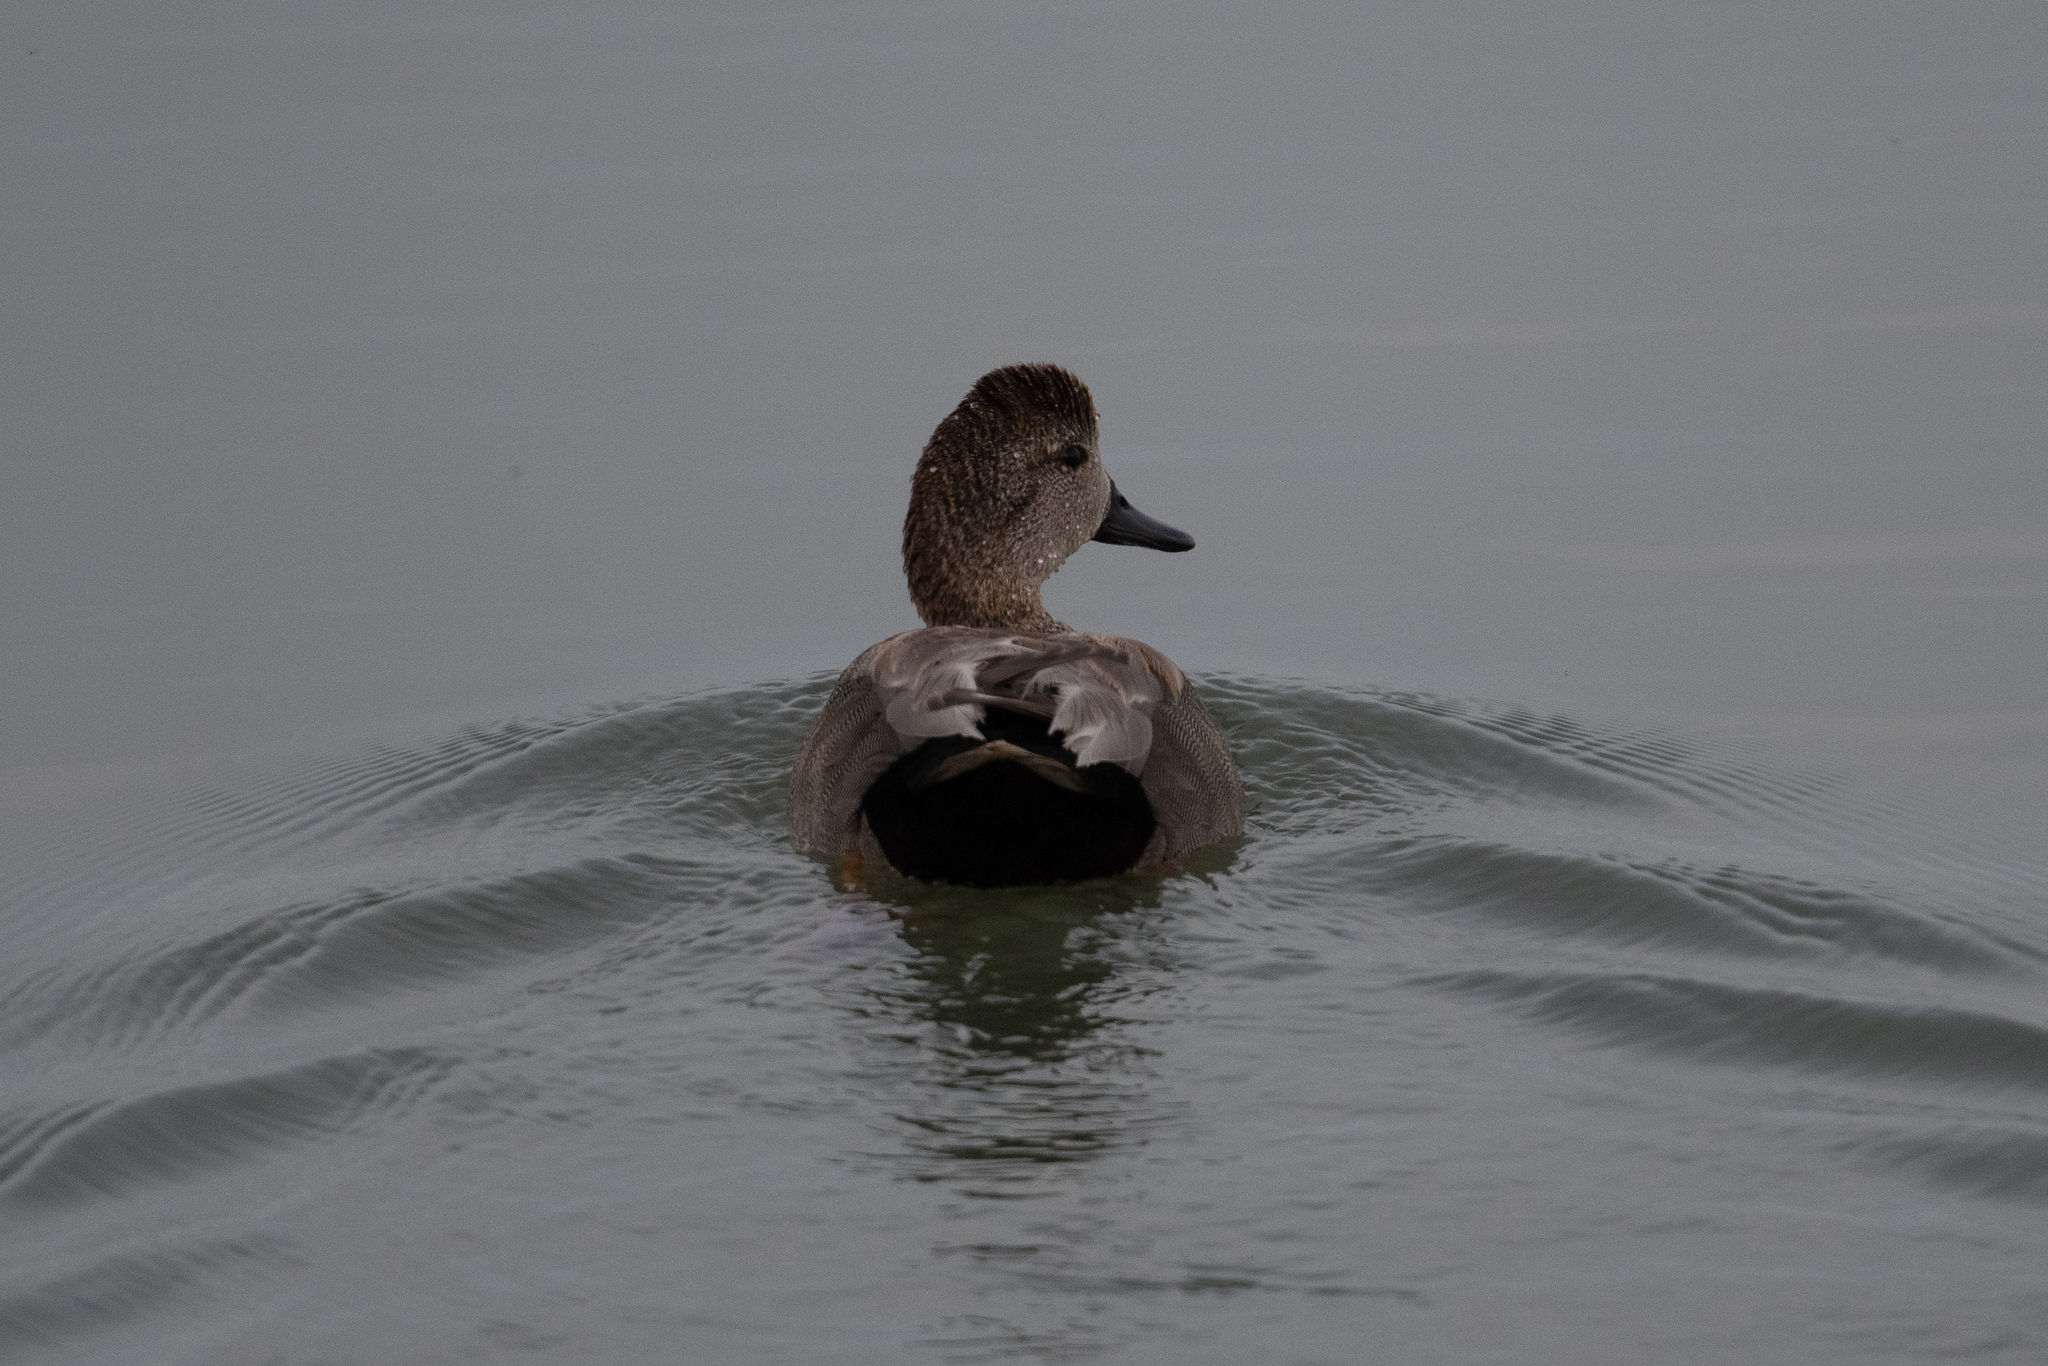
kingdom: Animalia
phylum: Chordata
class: Aves
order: Anseriformes
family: Anatidae
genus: Mareca
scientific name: Mareca strepera
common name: Gadwall
